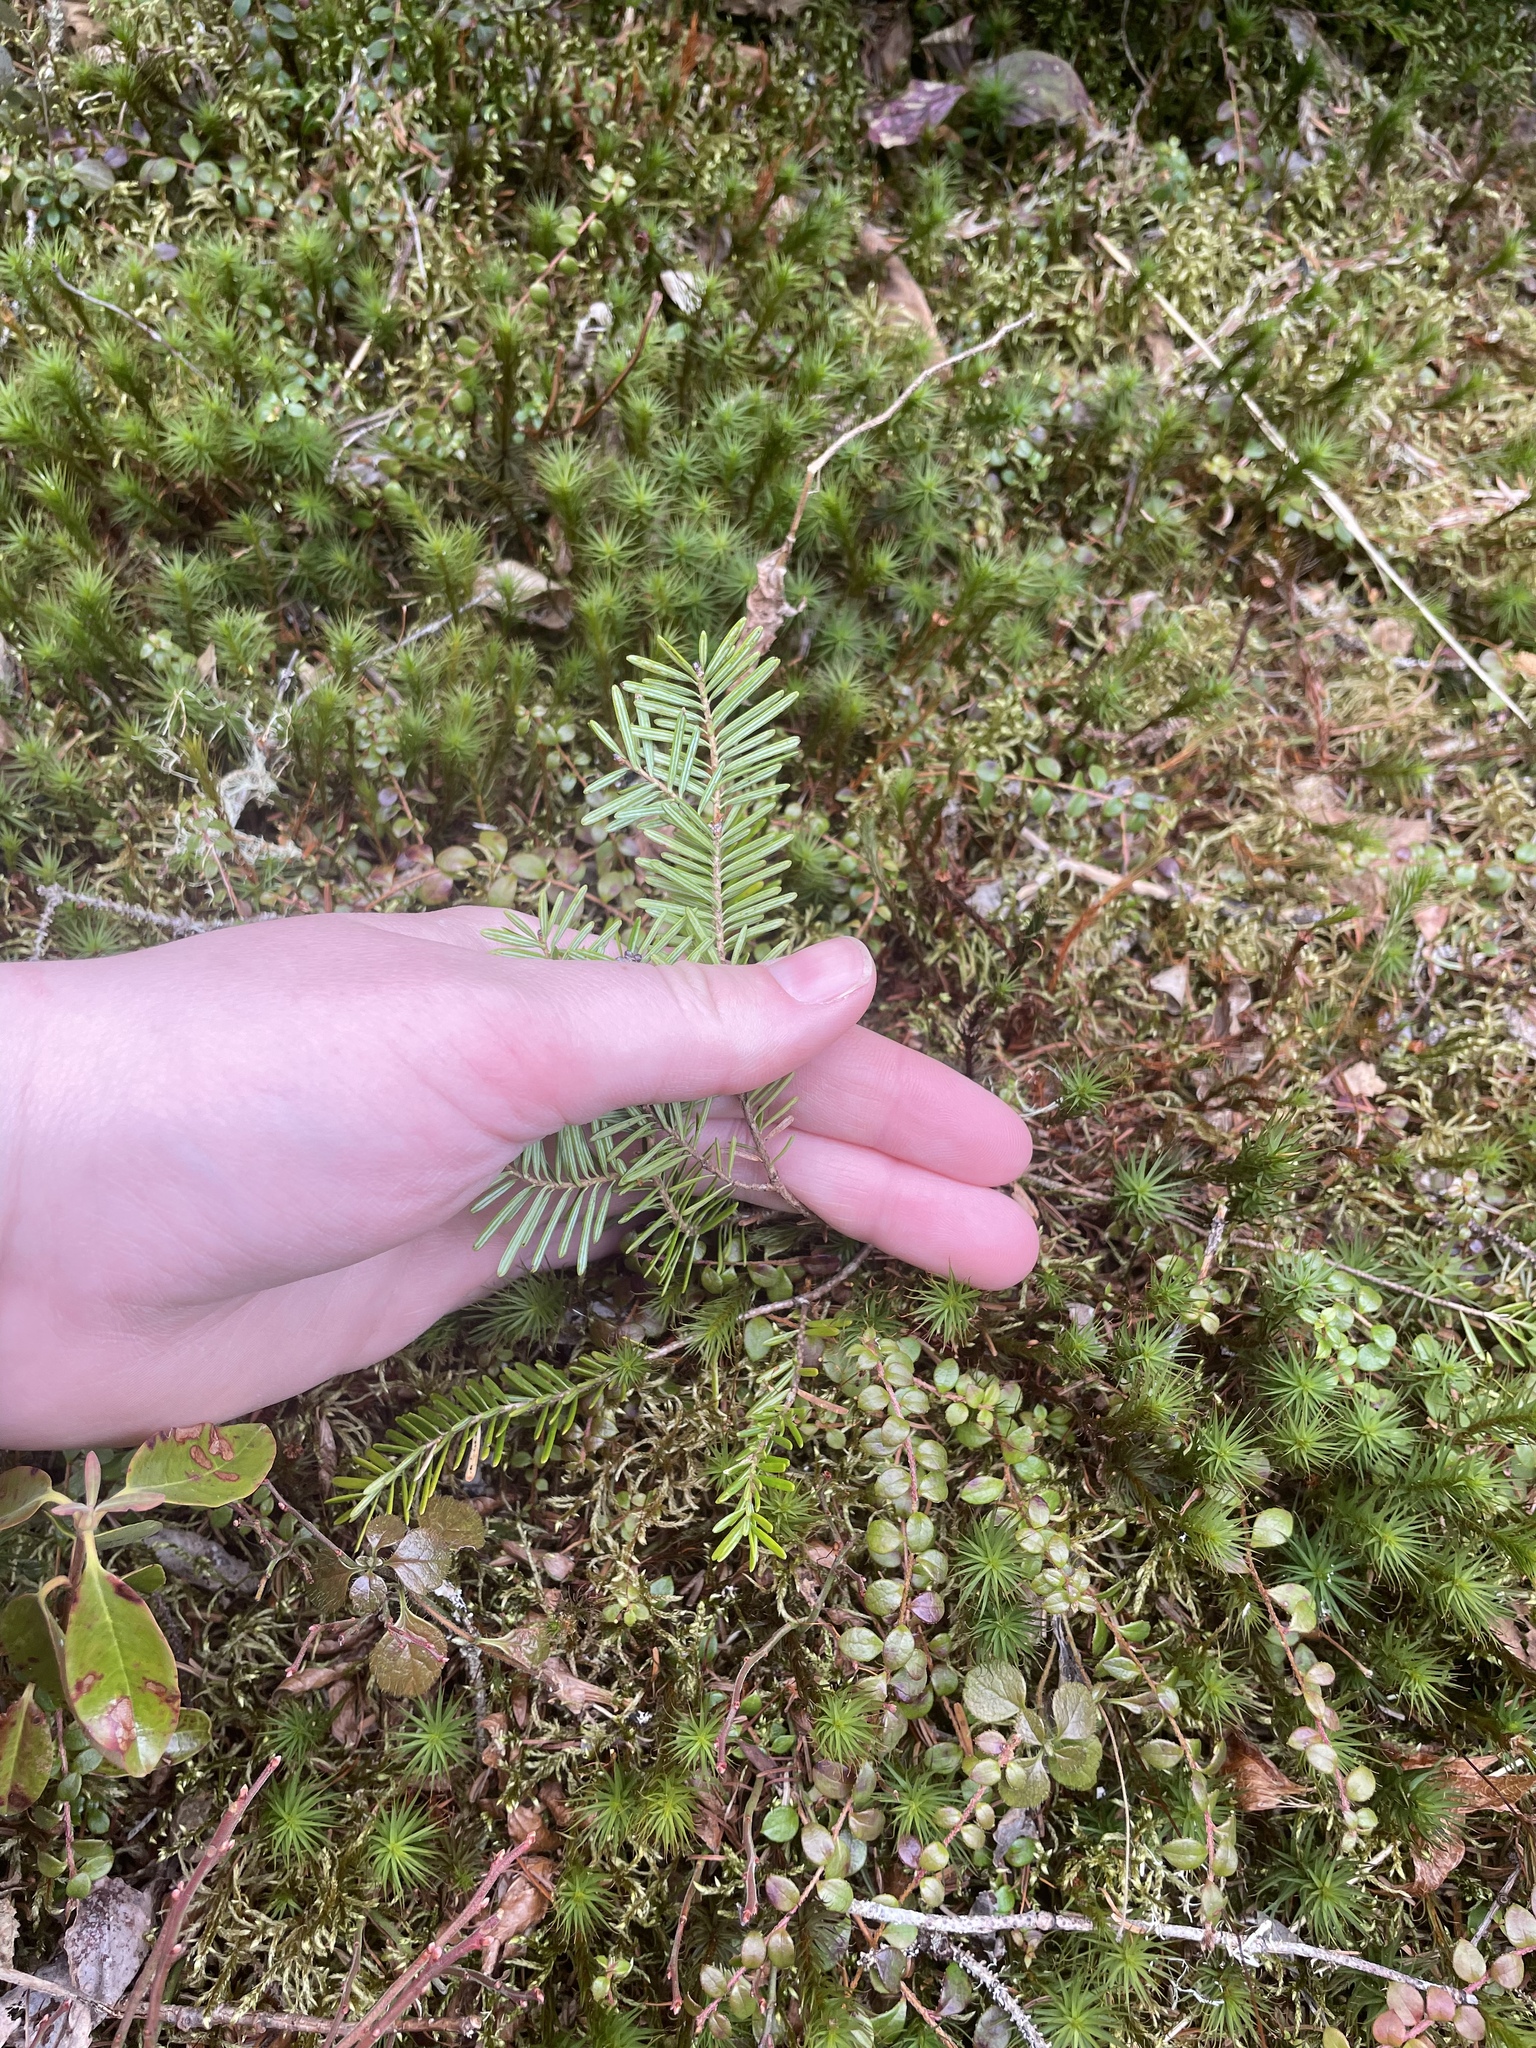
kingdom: Plantae
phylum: Tracheophyta
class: Pinopsida
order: Pinales
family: Pinaceae
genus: Abies
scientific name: Abies balsamea
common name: Balsam fir
